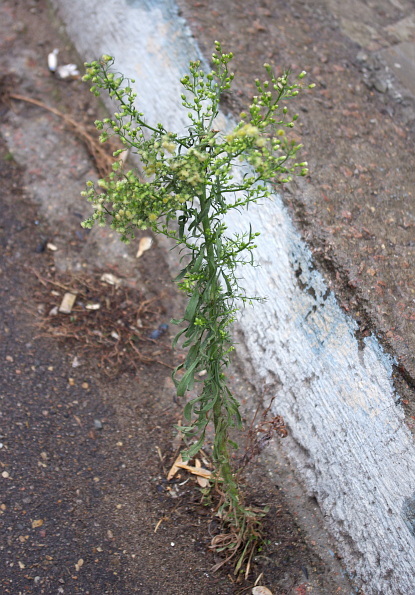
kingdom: Plantae
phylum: Tracheophyta
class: Magnoliopsida
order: Asterales
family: Asteraceae
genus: Erigeron
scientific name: Erigeron canadensis
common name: Canadian fleabane
